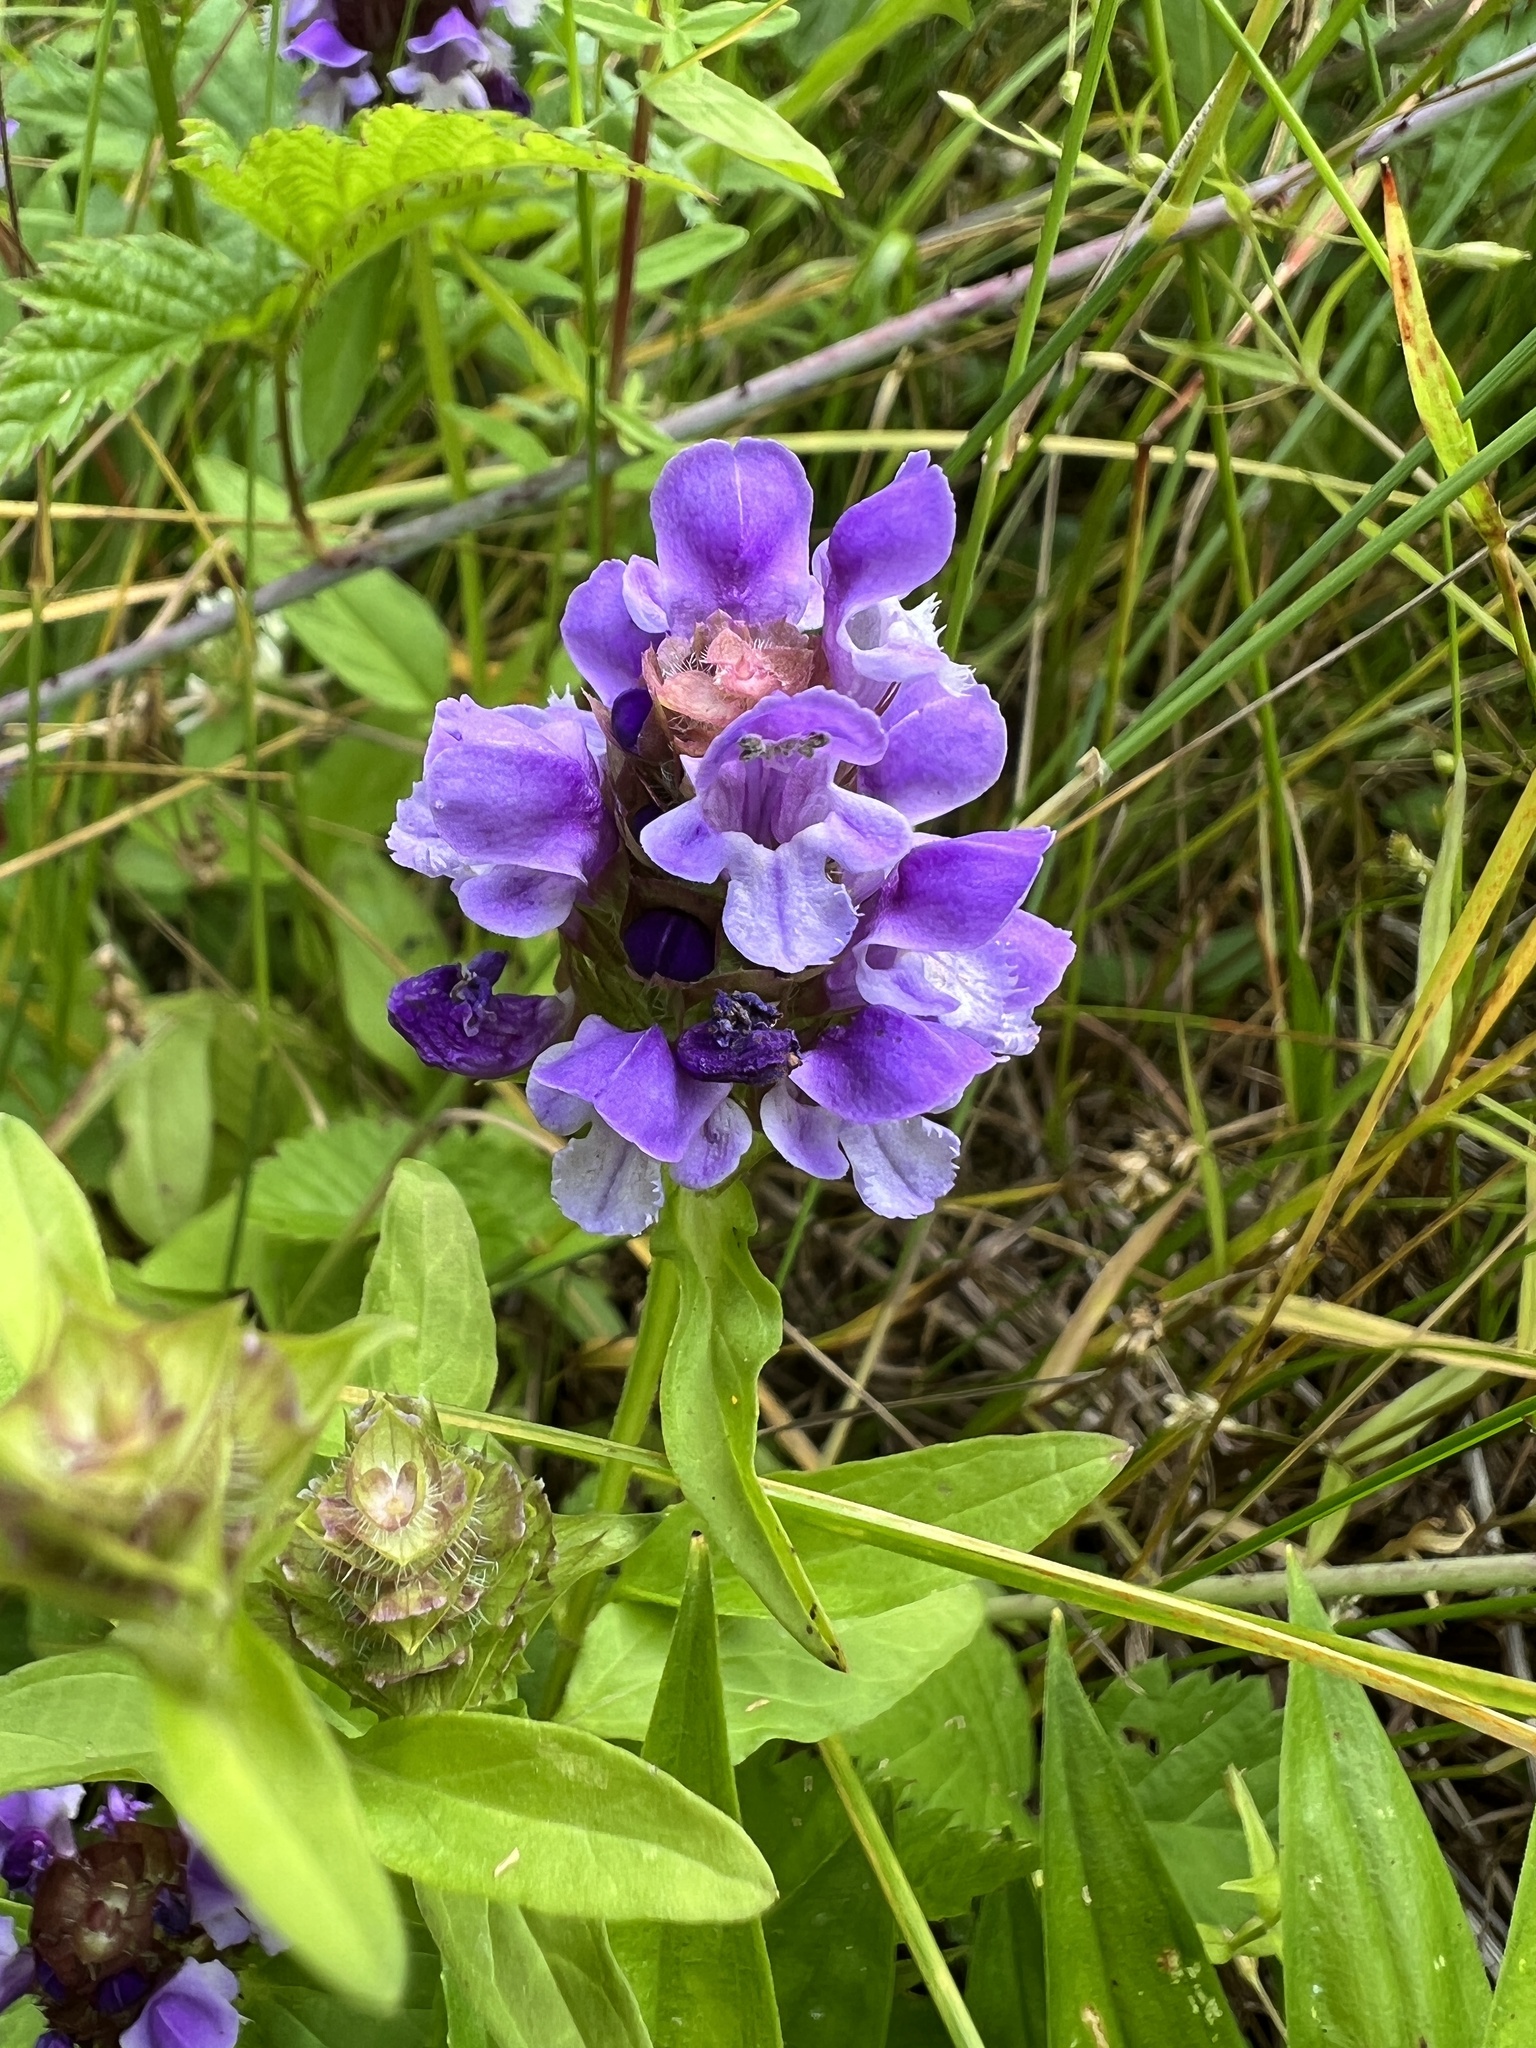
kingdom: Plantae
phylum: Tracheophyta
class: Magnoliopsida
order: Lamiales
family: Lamiaceae
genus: Prunella
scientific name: Prunella vulgaris
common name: Heal-all
